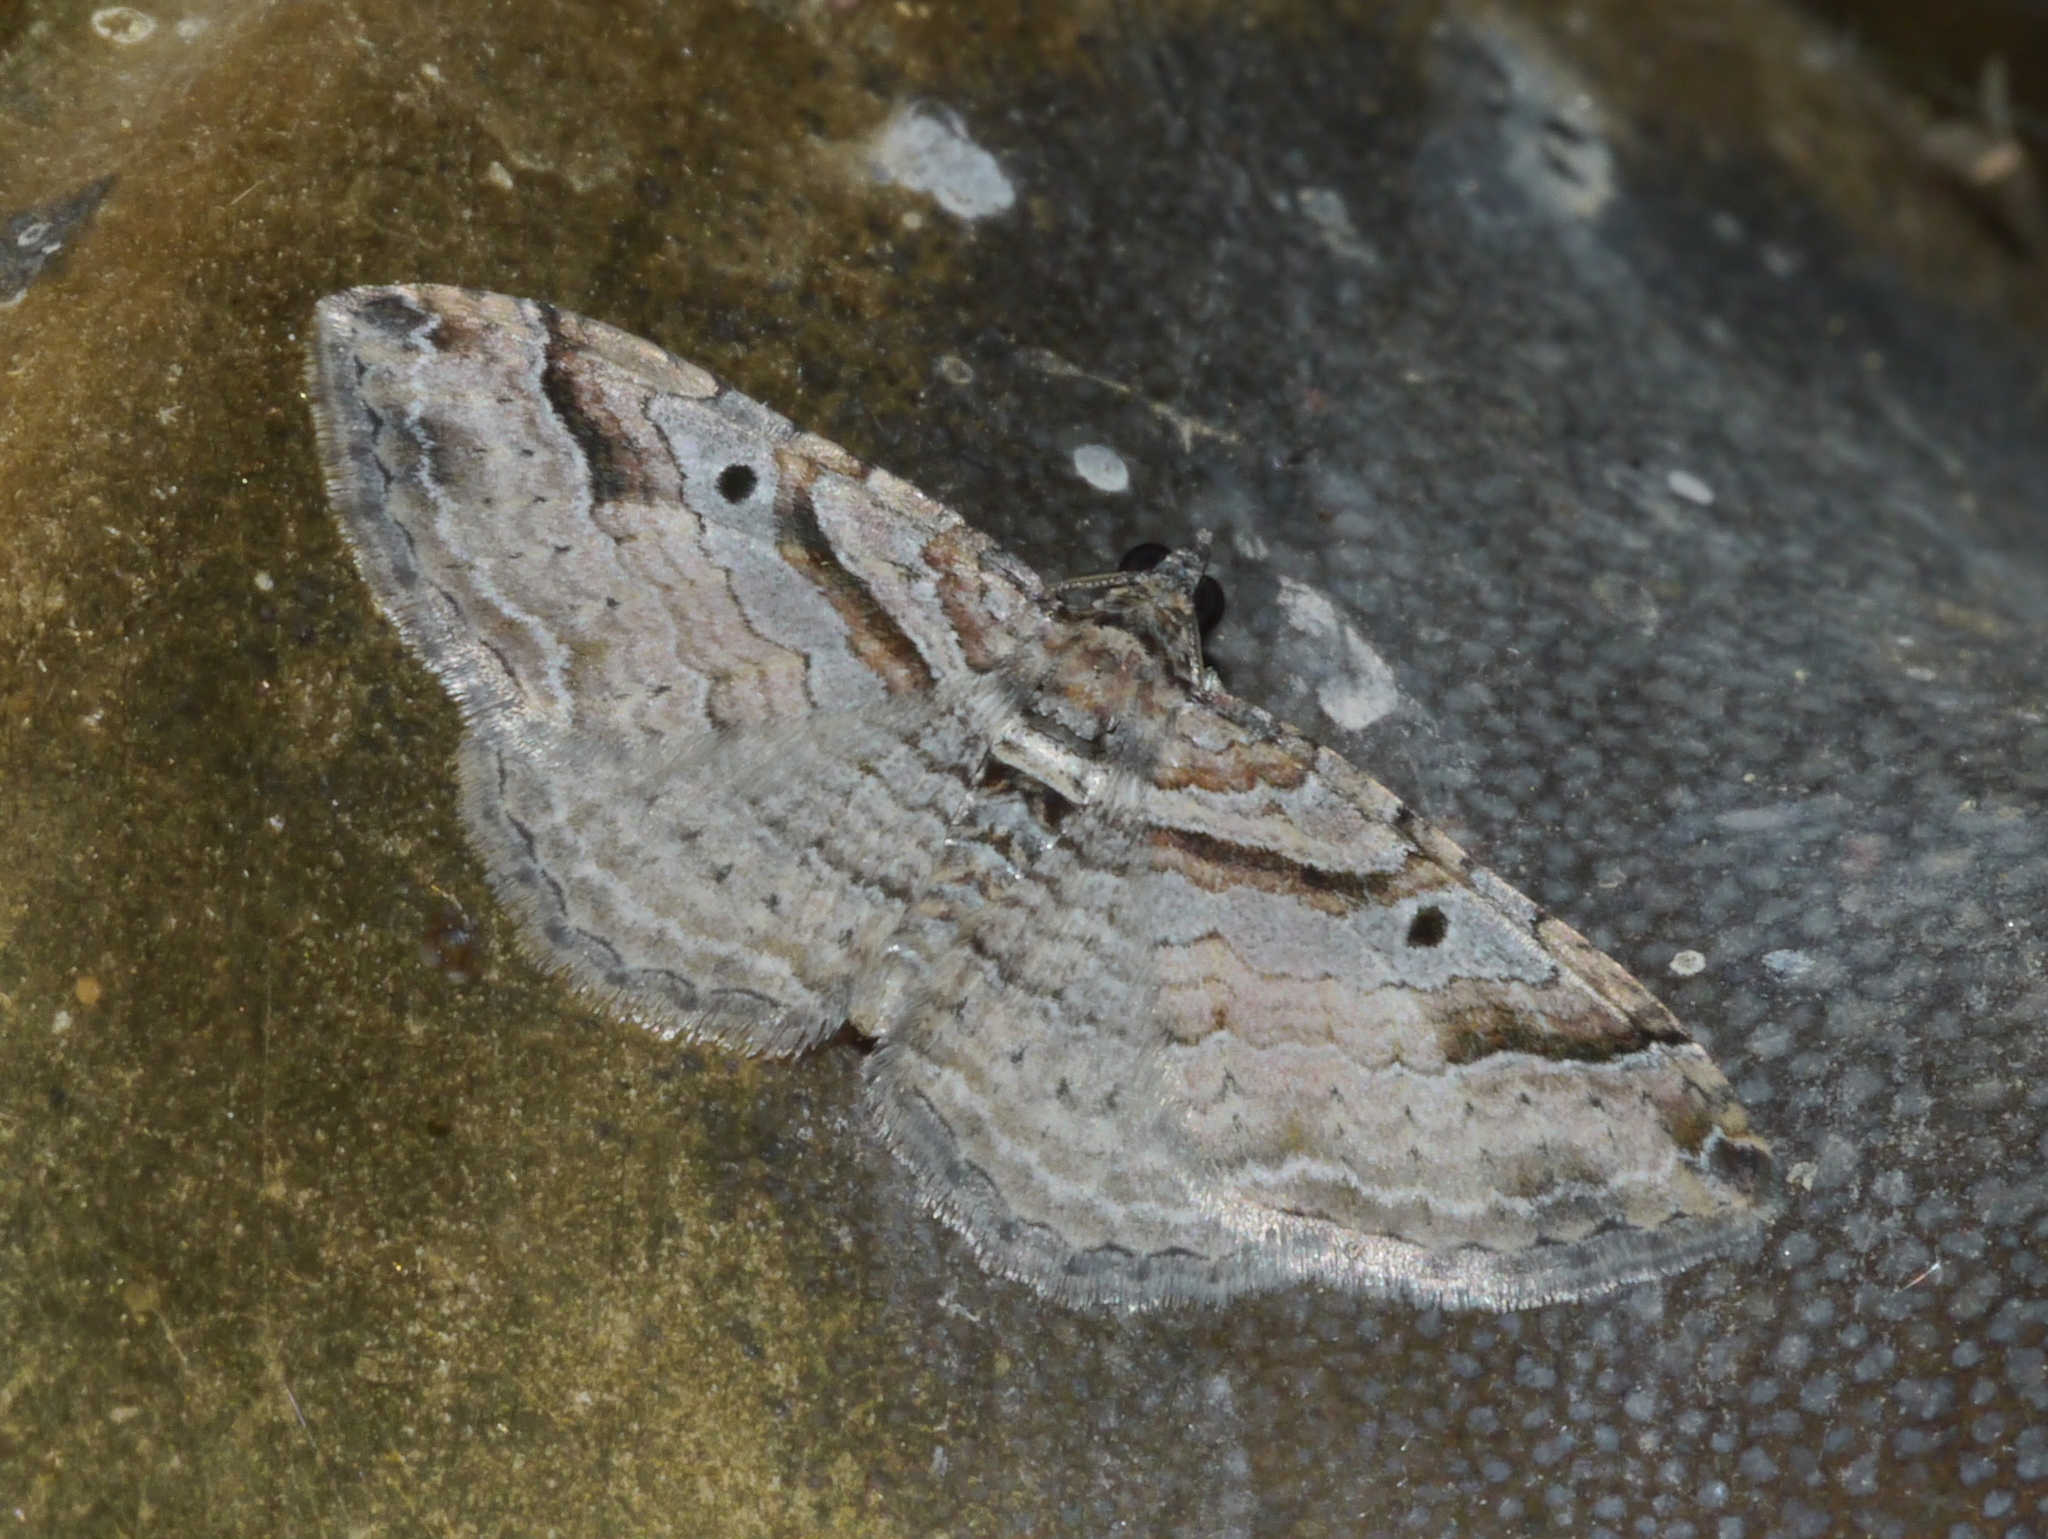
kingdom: Animalia
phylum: Arthropoda
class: Insecta
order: Lepidoptera
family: Geometridae
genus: Costaconvexa
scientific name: Costaconvexa centrostrigaria
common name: Bent-line carpet
